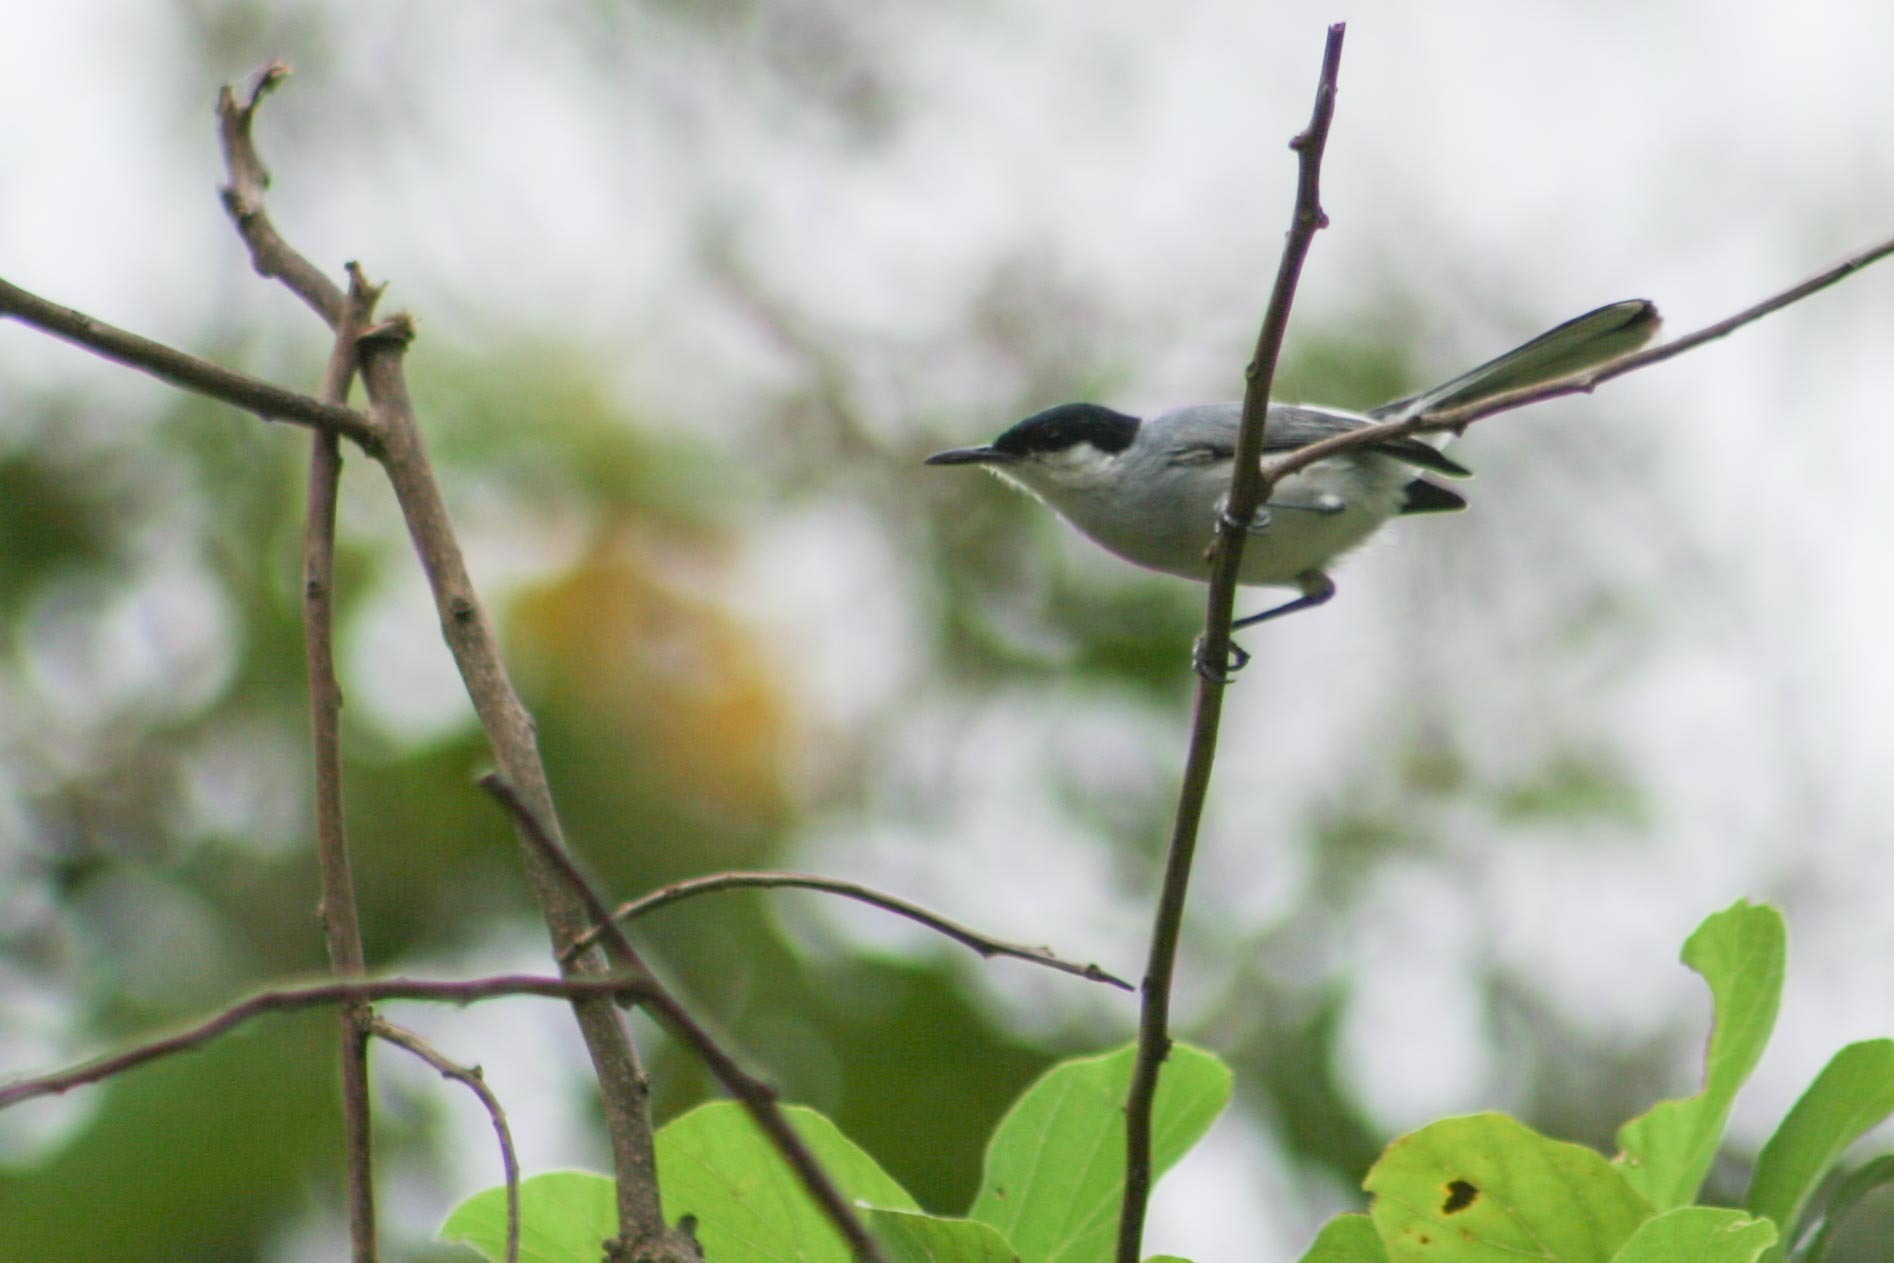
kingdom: Animalia
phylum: Chordata
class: Aves
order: Passeriformes
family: Polioptilidae
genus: Polioptila
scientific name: Polioptila albiloris
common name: White-lored gnatcatcher
